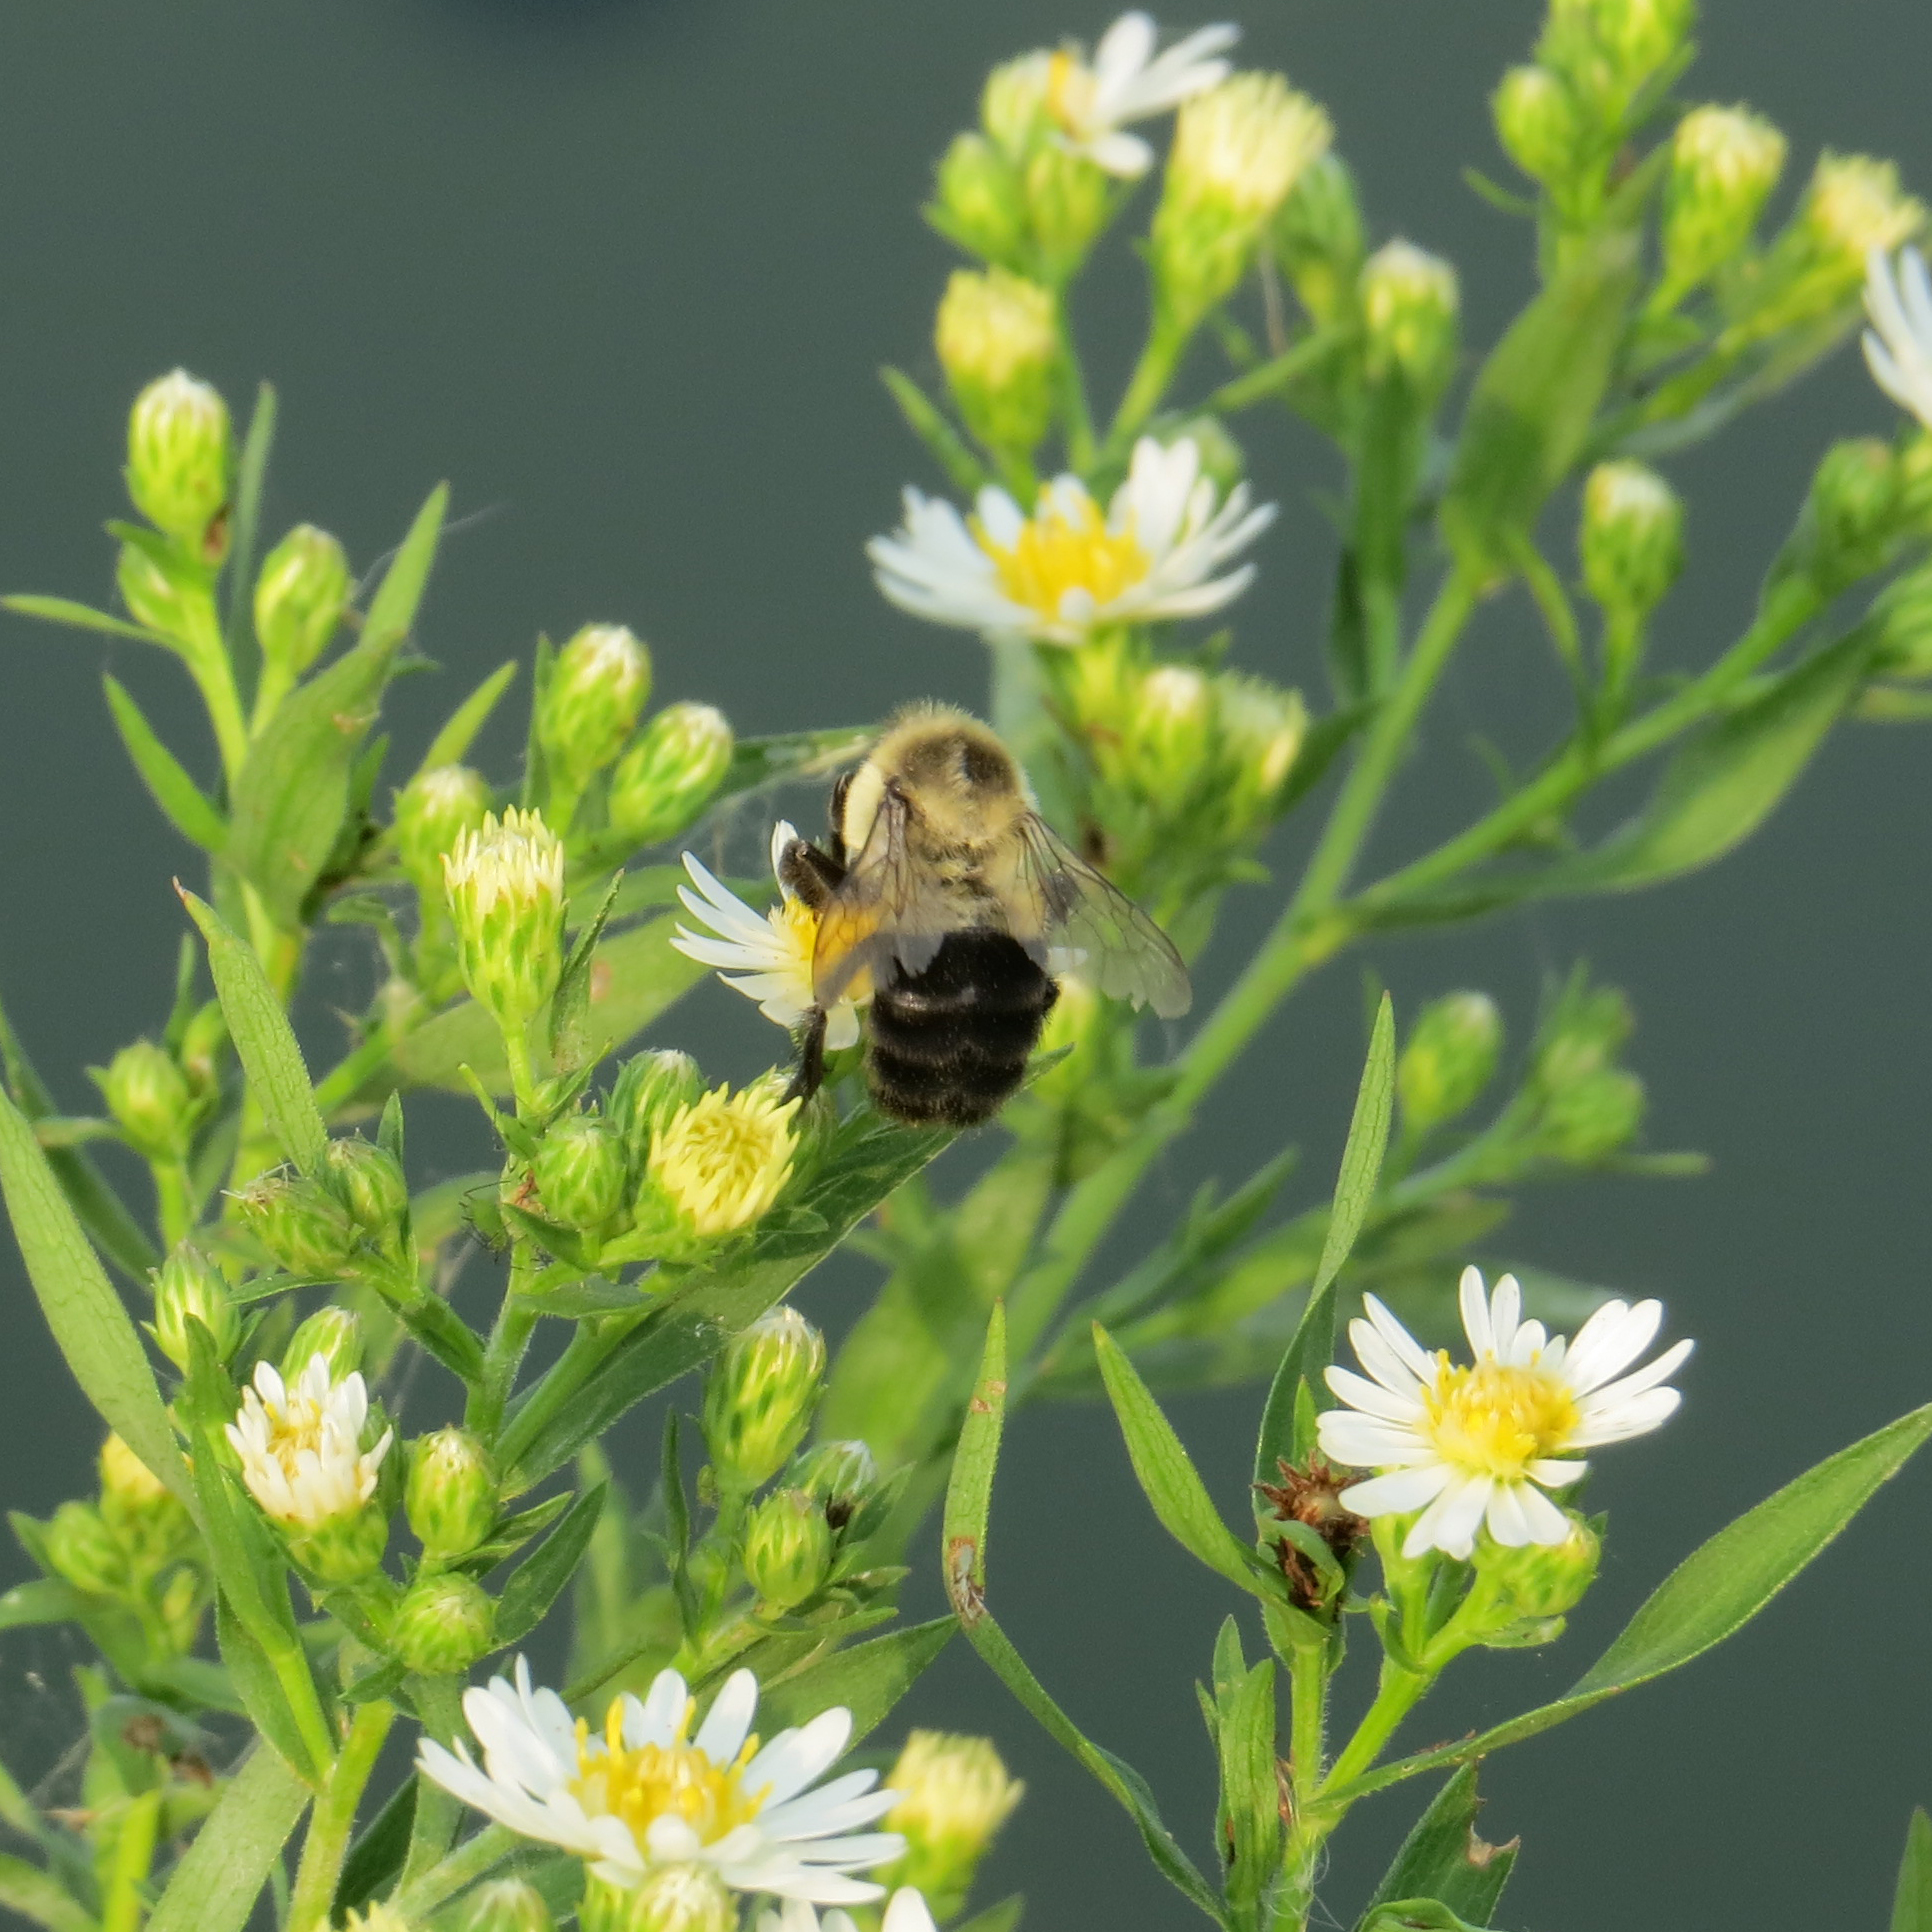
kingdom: Animalia
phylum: Arthropoda
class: Insecta
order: Hymenoptera
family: Apidae
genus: Bombus
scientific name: Bombus impatiens
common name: Common eastern bumble bee
